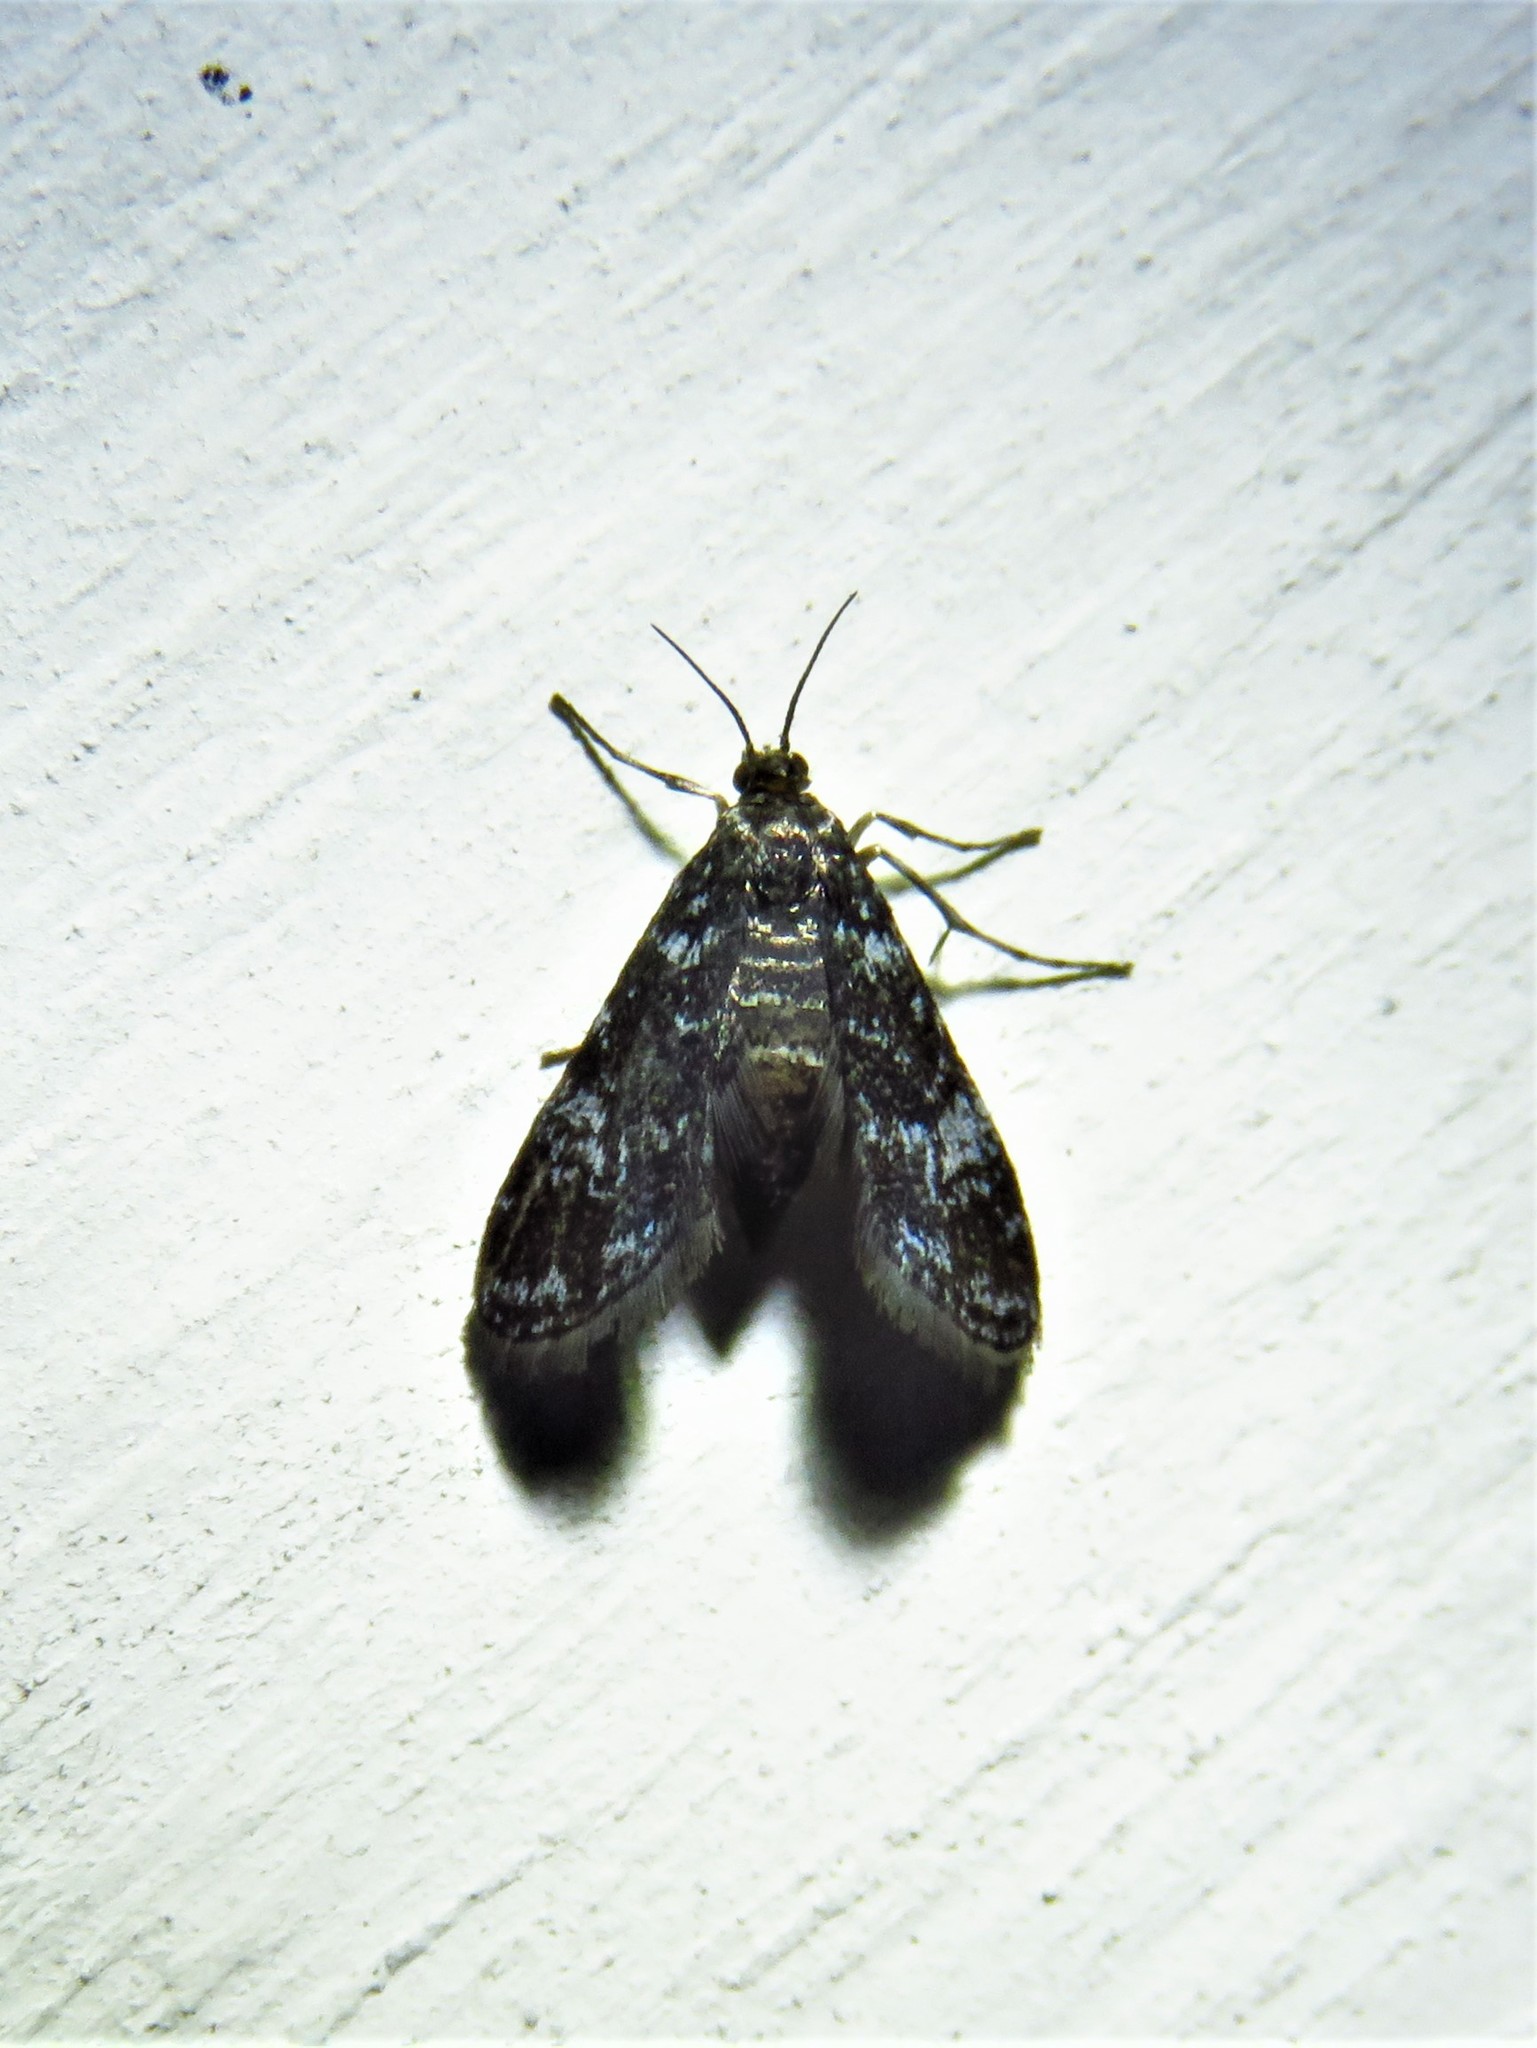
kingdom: Animalia
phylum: Arthropoda
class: Insecta
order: Lepidoptera
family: Crambidae
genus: Elophila
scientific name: Elophila tinealis
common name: Black duckweed moth
